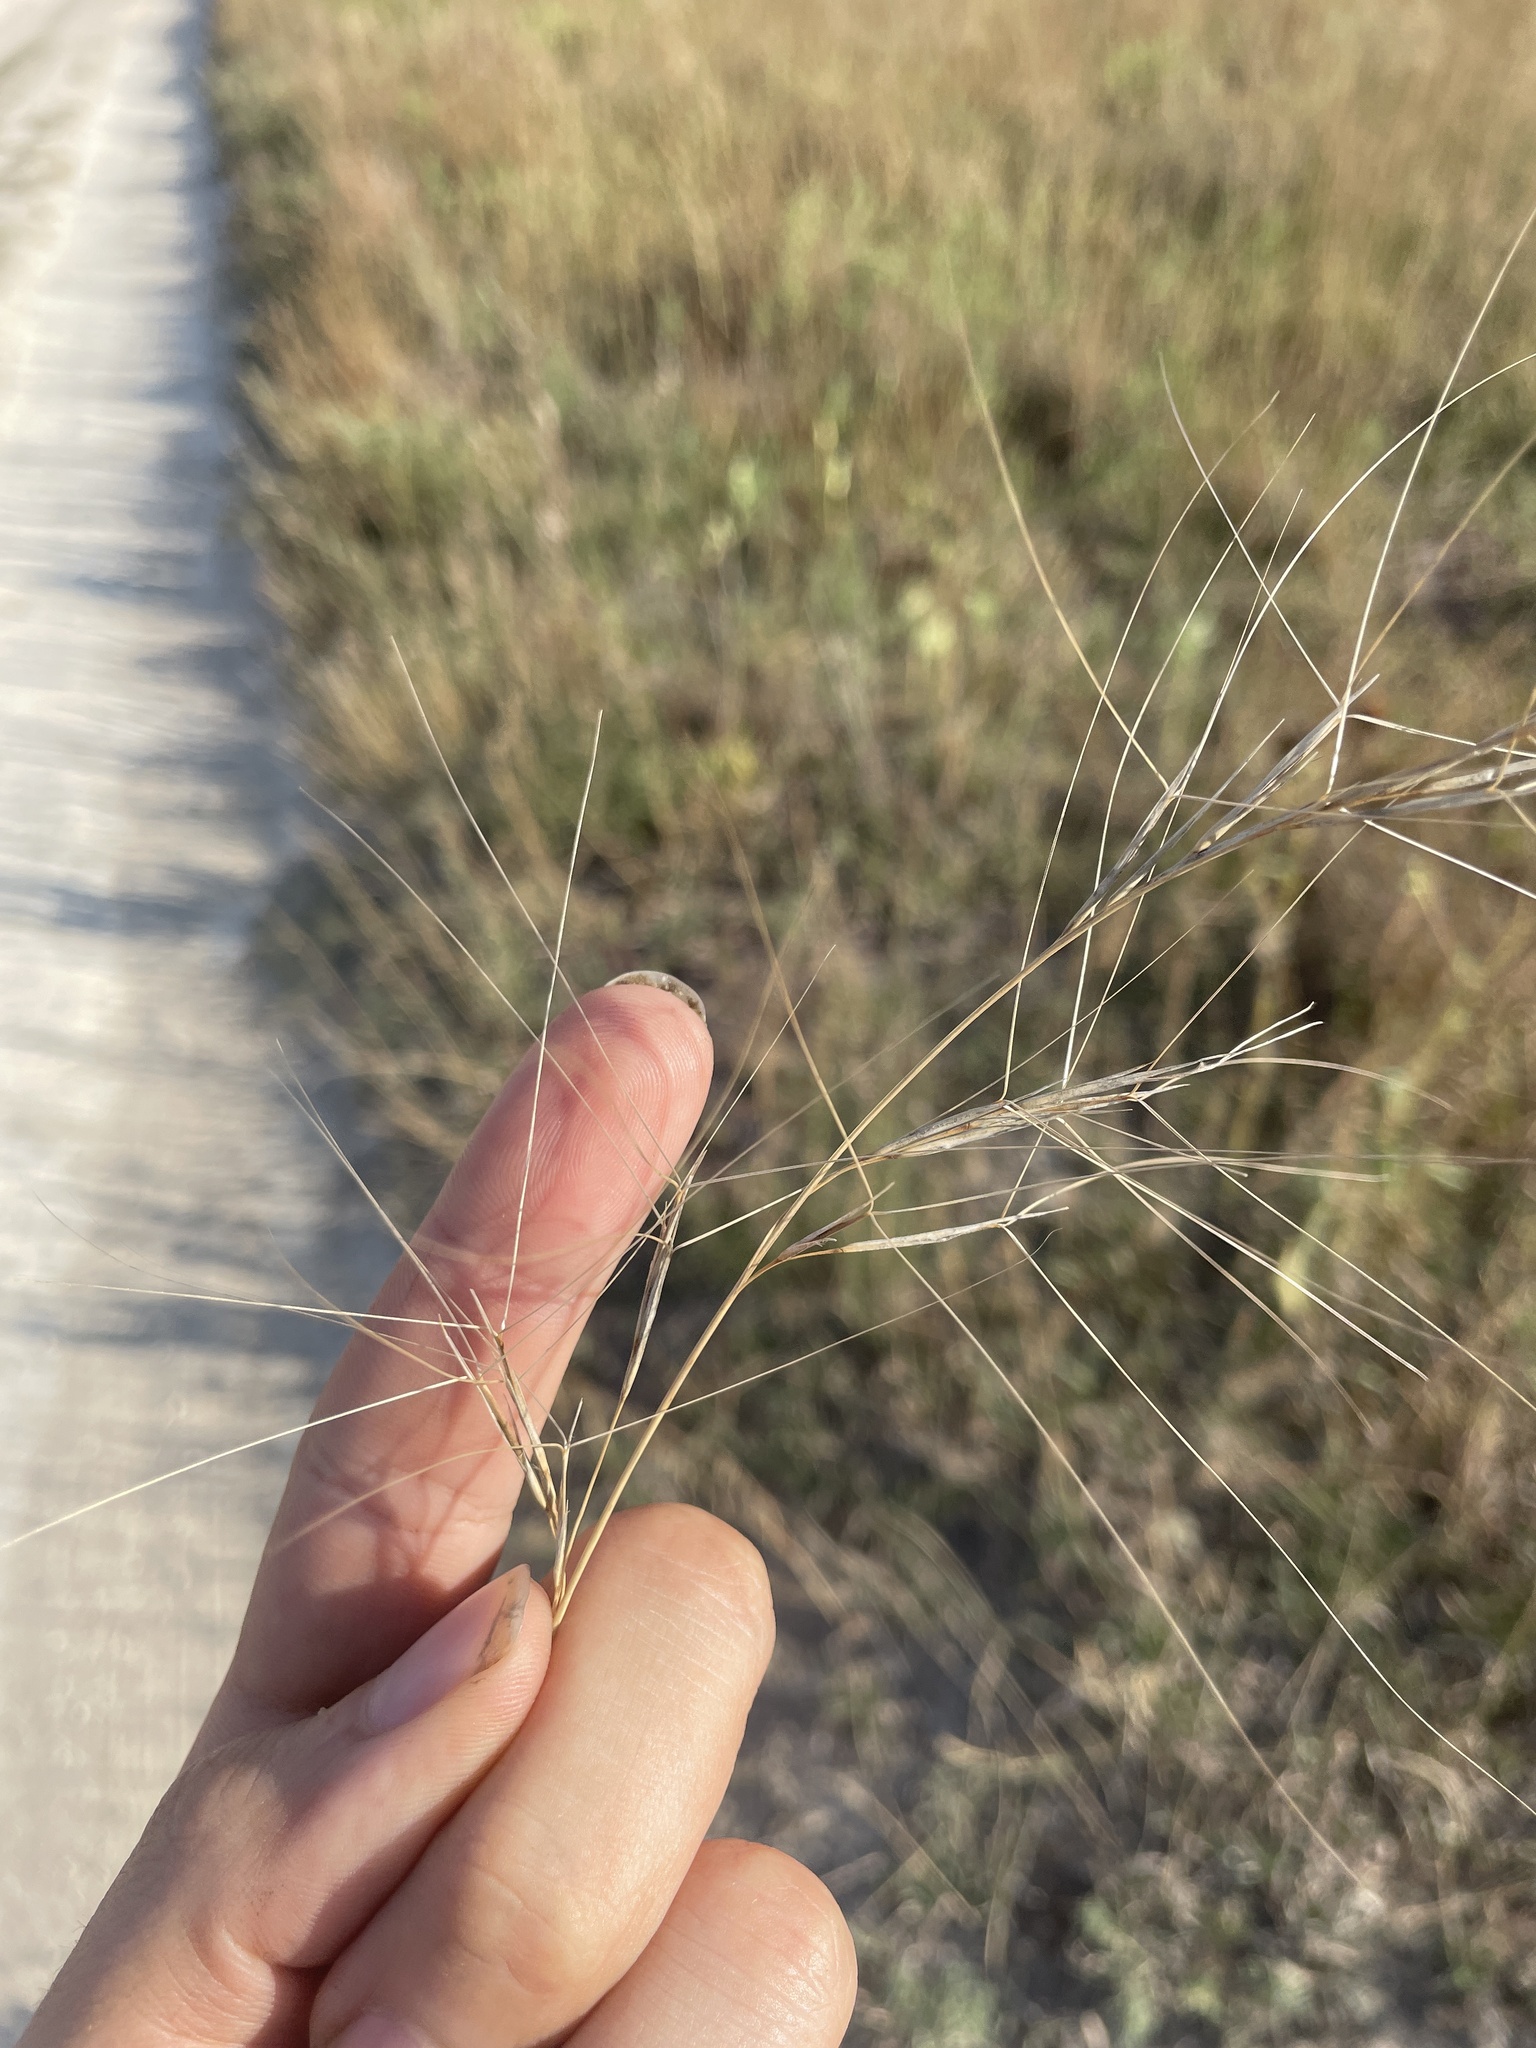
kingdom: Plantae
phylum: Tracheophyta
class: Liliopsida
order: Poales
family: Poaceae
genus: Aristida
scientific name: Aristida oligantha
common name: Few-flowered aristida
